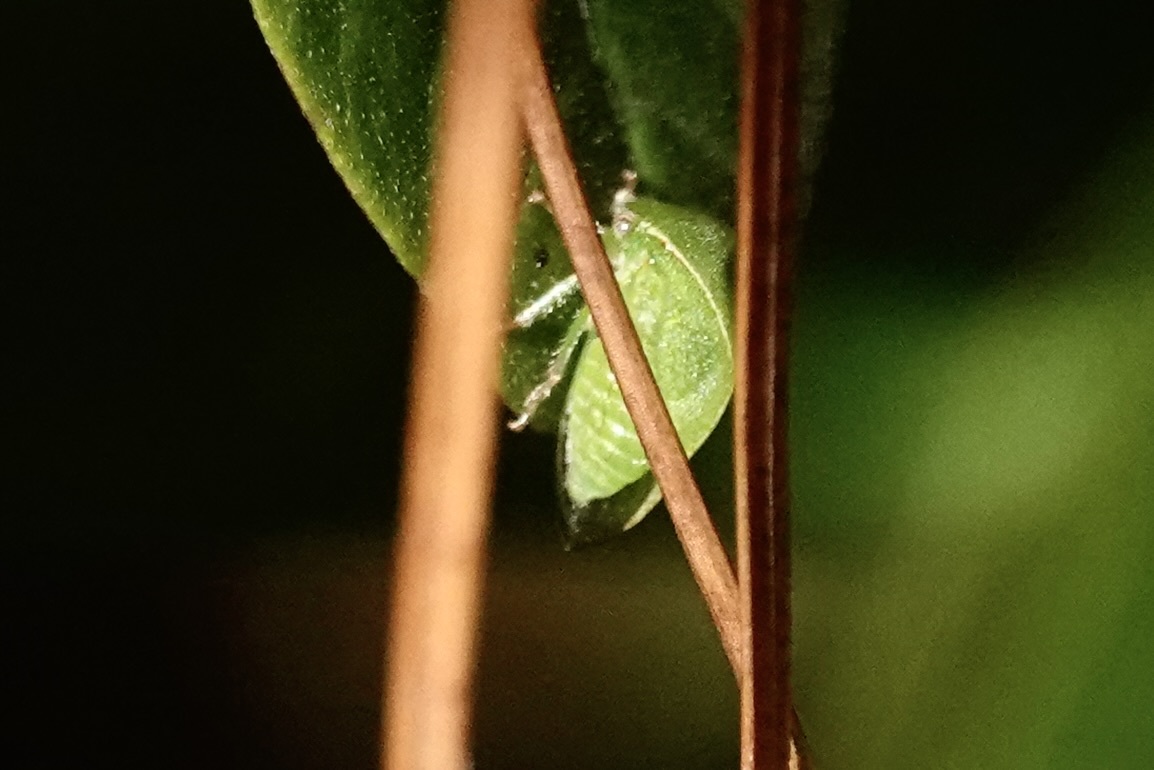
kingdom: Animalia
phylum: Arthropoda
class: Insecta
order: Hemiptera
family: Membracidae
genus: Spissistilus
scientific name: Spissistilus festina
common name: Membracid bug
